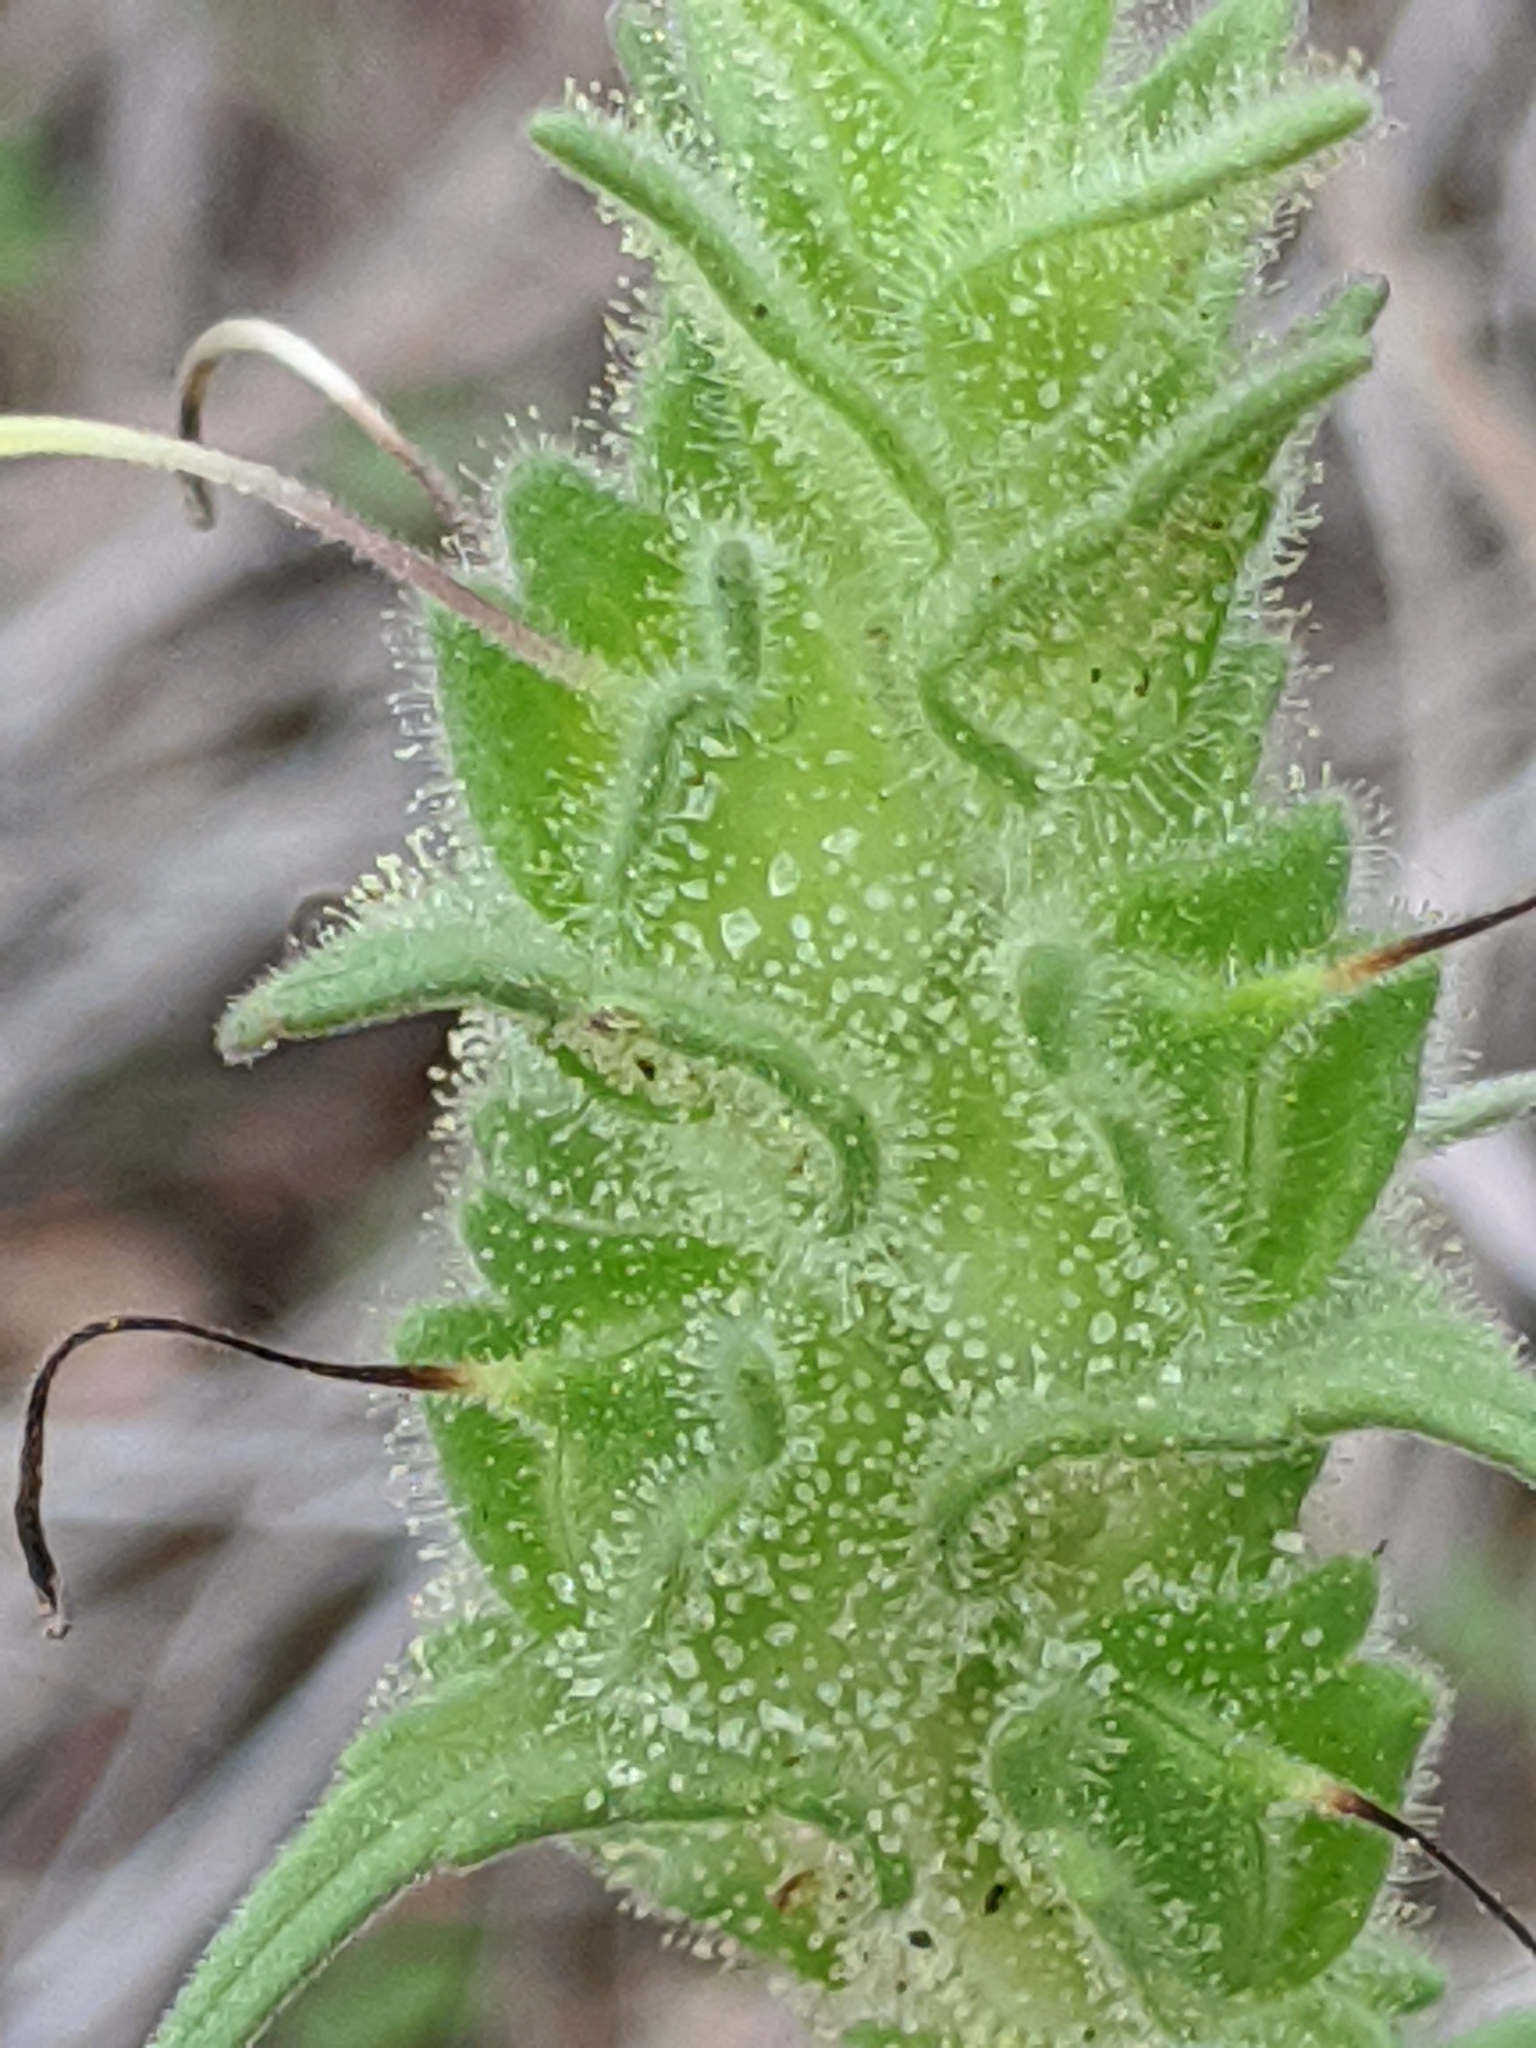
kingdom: Plantae
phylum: Tracheophyta
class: Magnoliopsida
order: Lamiales
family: Orobanchaceae
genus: Bellardia
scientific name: Bellardia trixago
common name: Mediterranean lineseed
